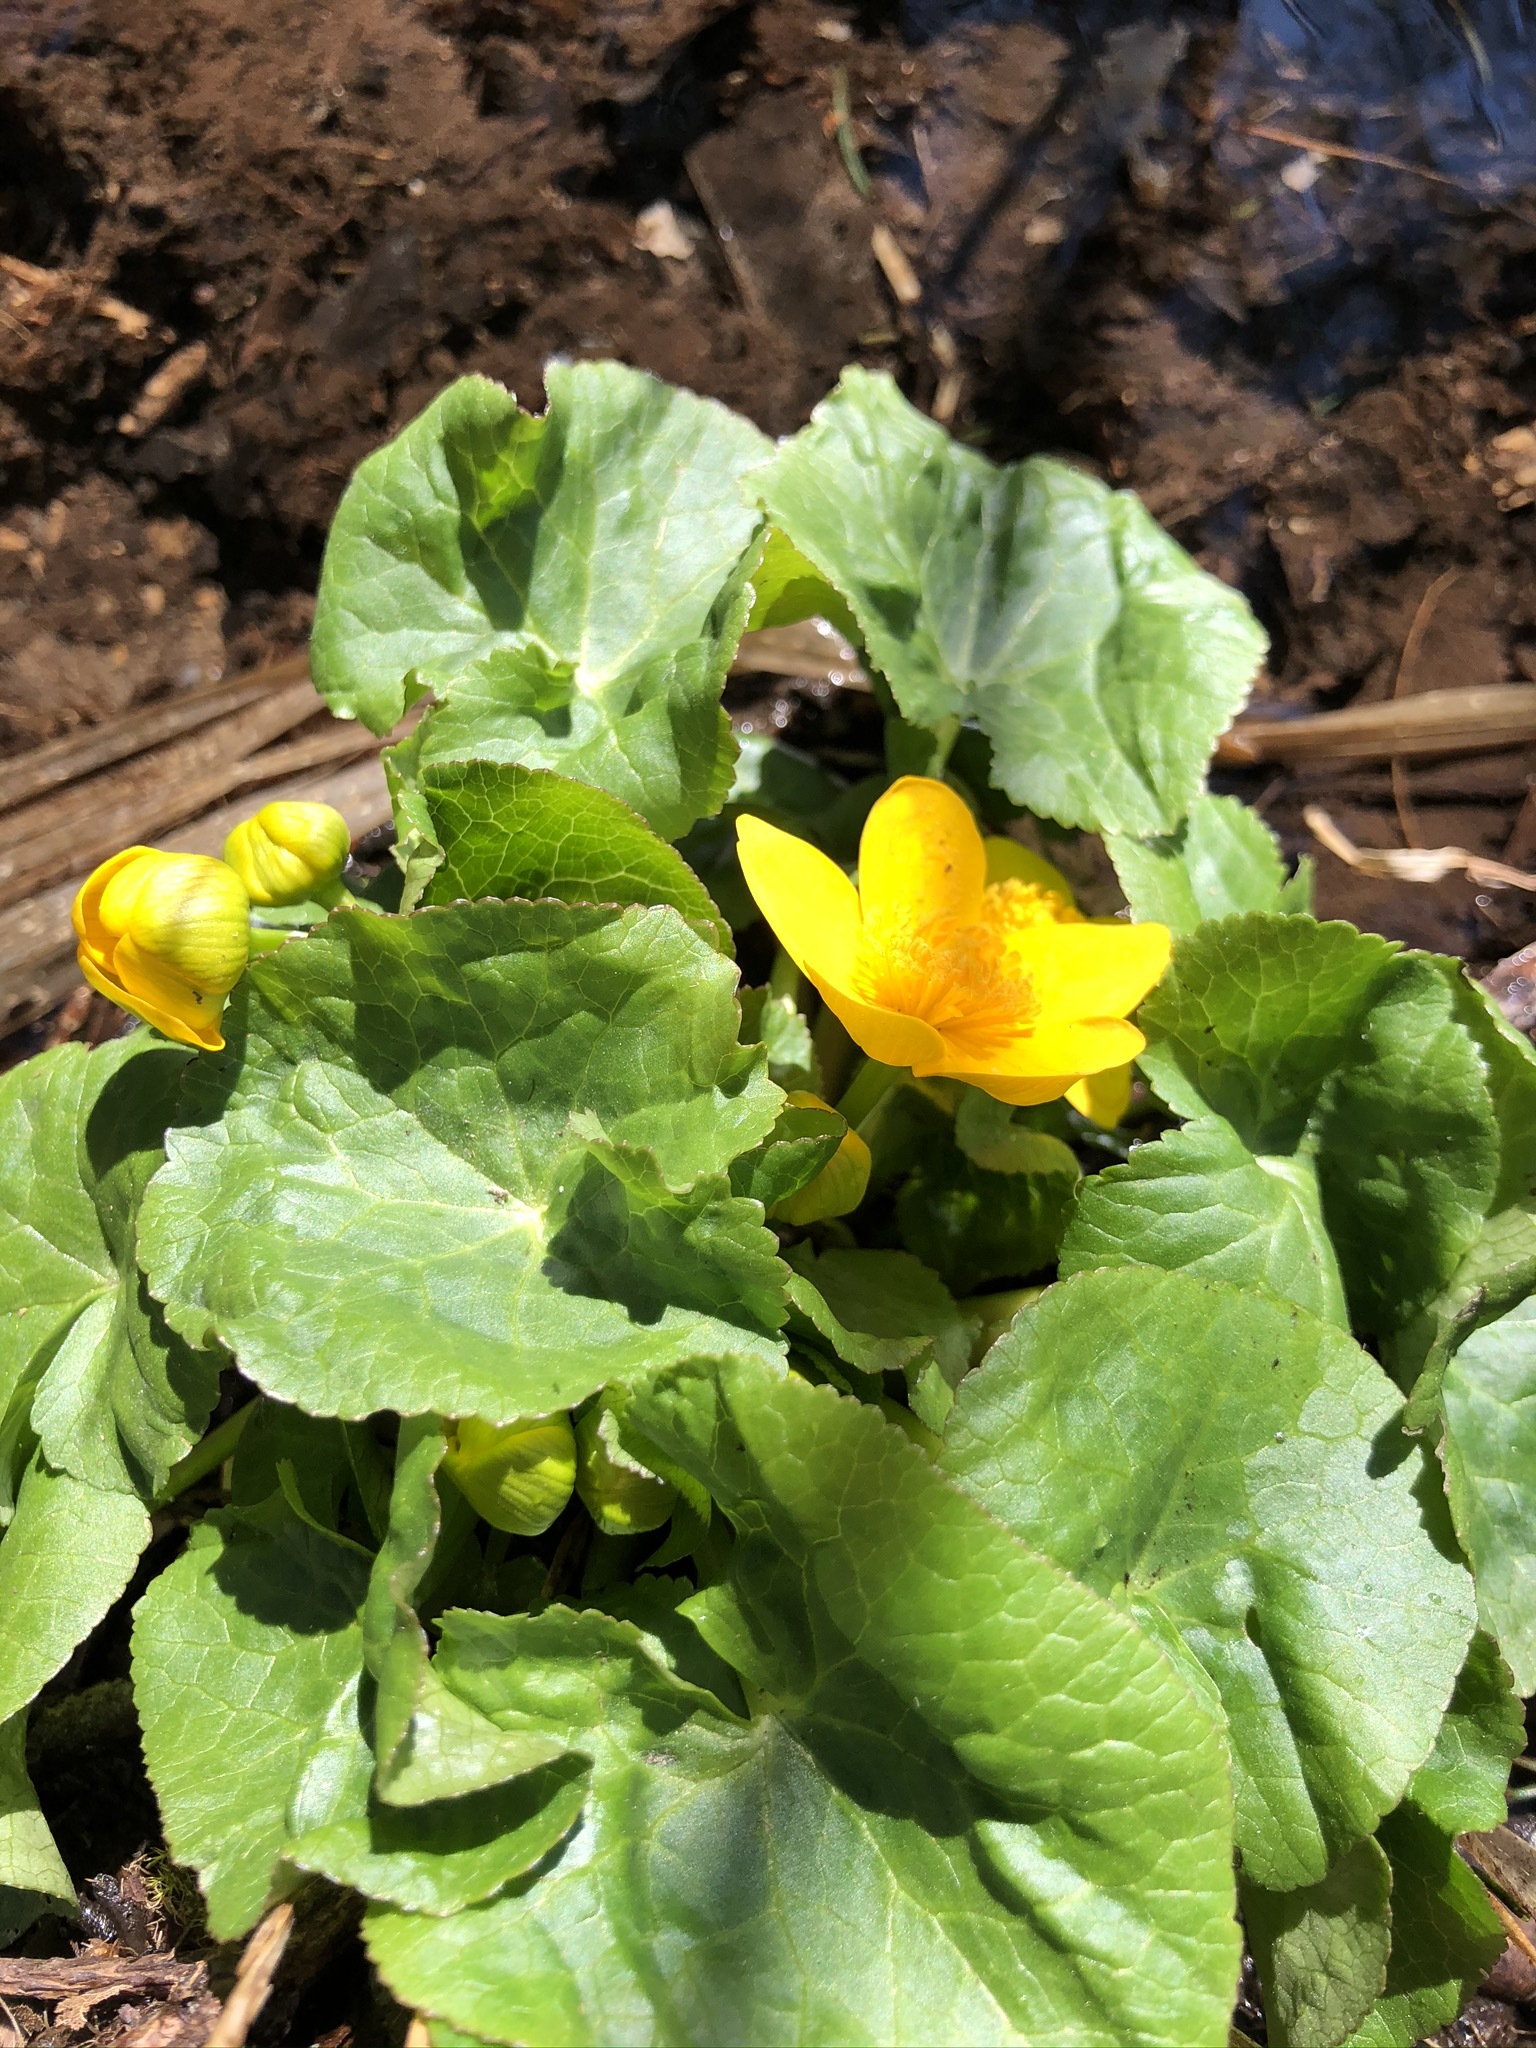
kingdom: Plantae
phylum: Tracheophyta
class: Magnoliopsida
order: Ranunculales
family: Ranunculaceae
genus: Caltha
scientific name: Caltha palustris
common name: Marsh marigold
